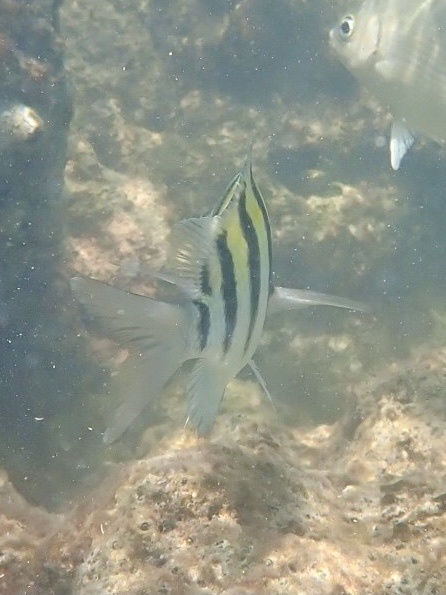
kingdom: Animalia
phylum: Chordata
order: Perciformes
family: Pomacentridae
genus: Abudefduf
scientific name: Abudefduf saxatilis
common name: Sergeant major
